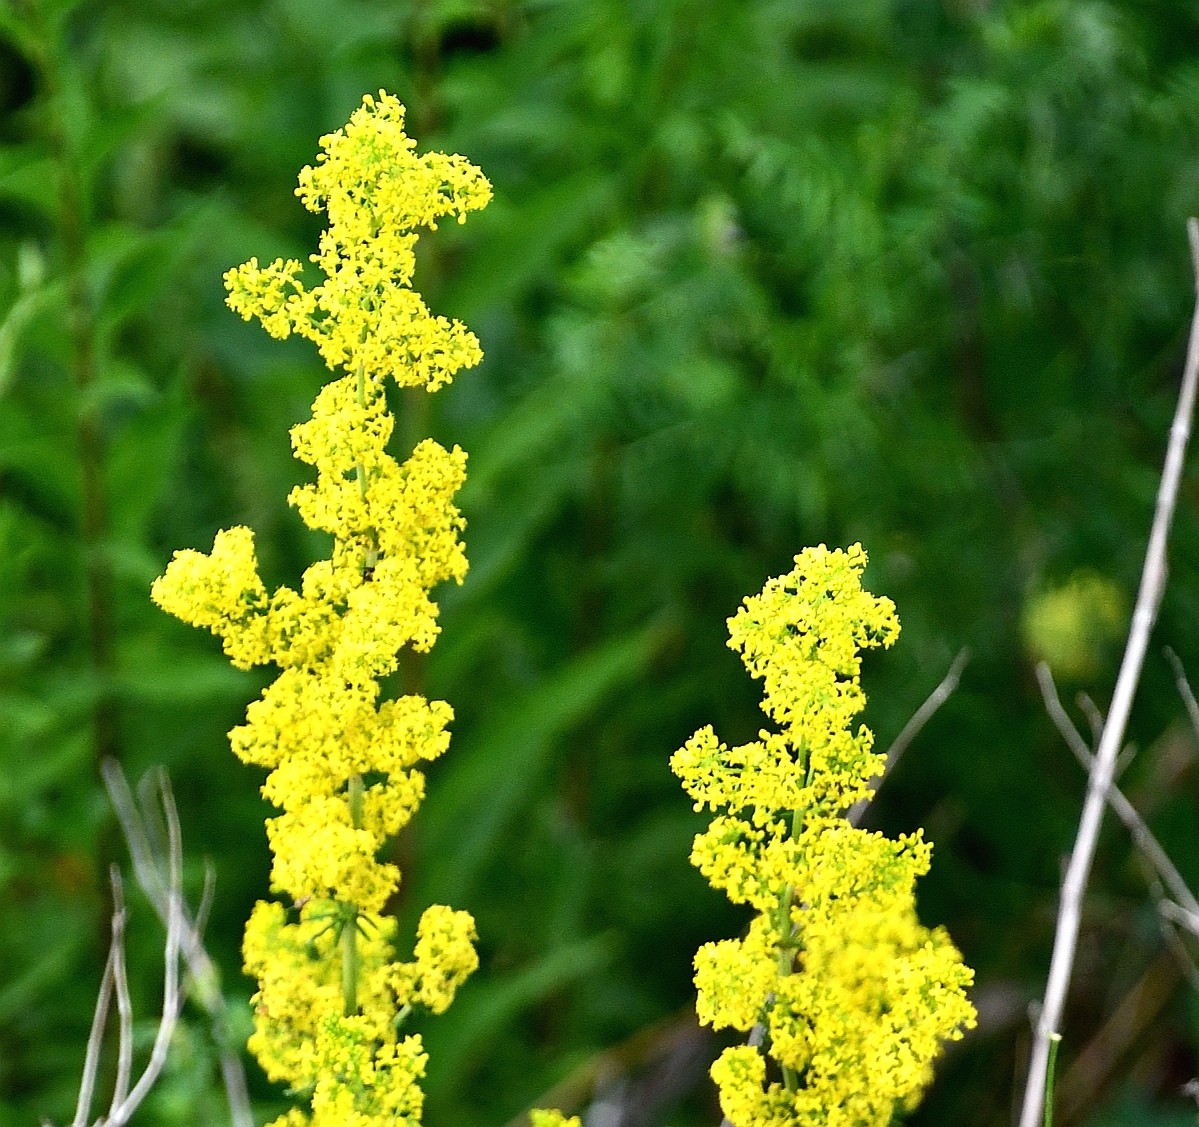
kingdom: Plantae
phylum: Tracheophyta
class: Magnoliopsida
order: Gentianales
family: Rubiaceae
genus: Galium
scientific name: Galium verum
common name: Lady's bedstraw
